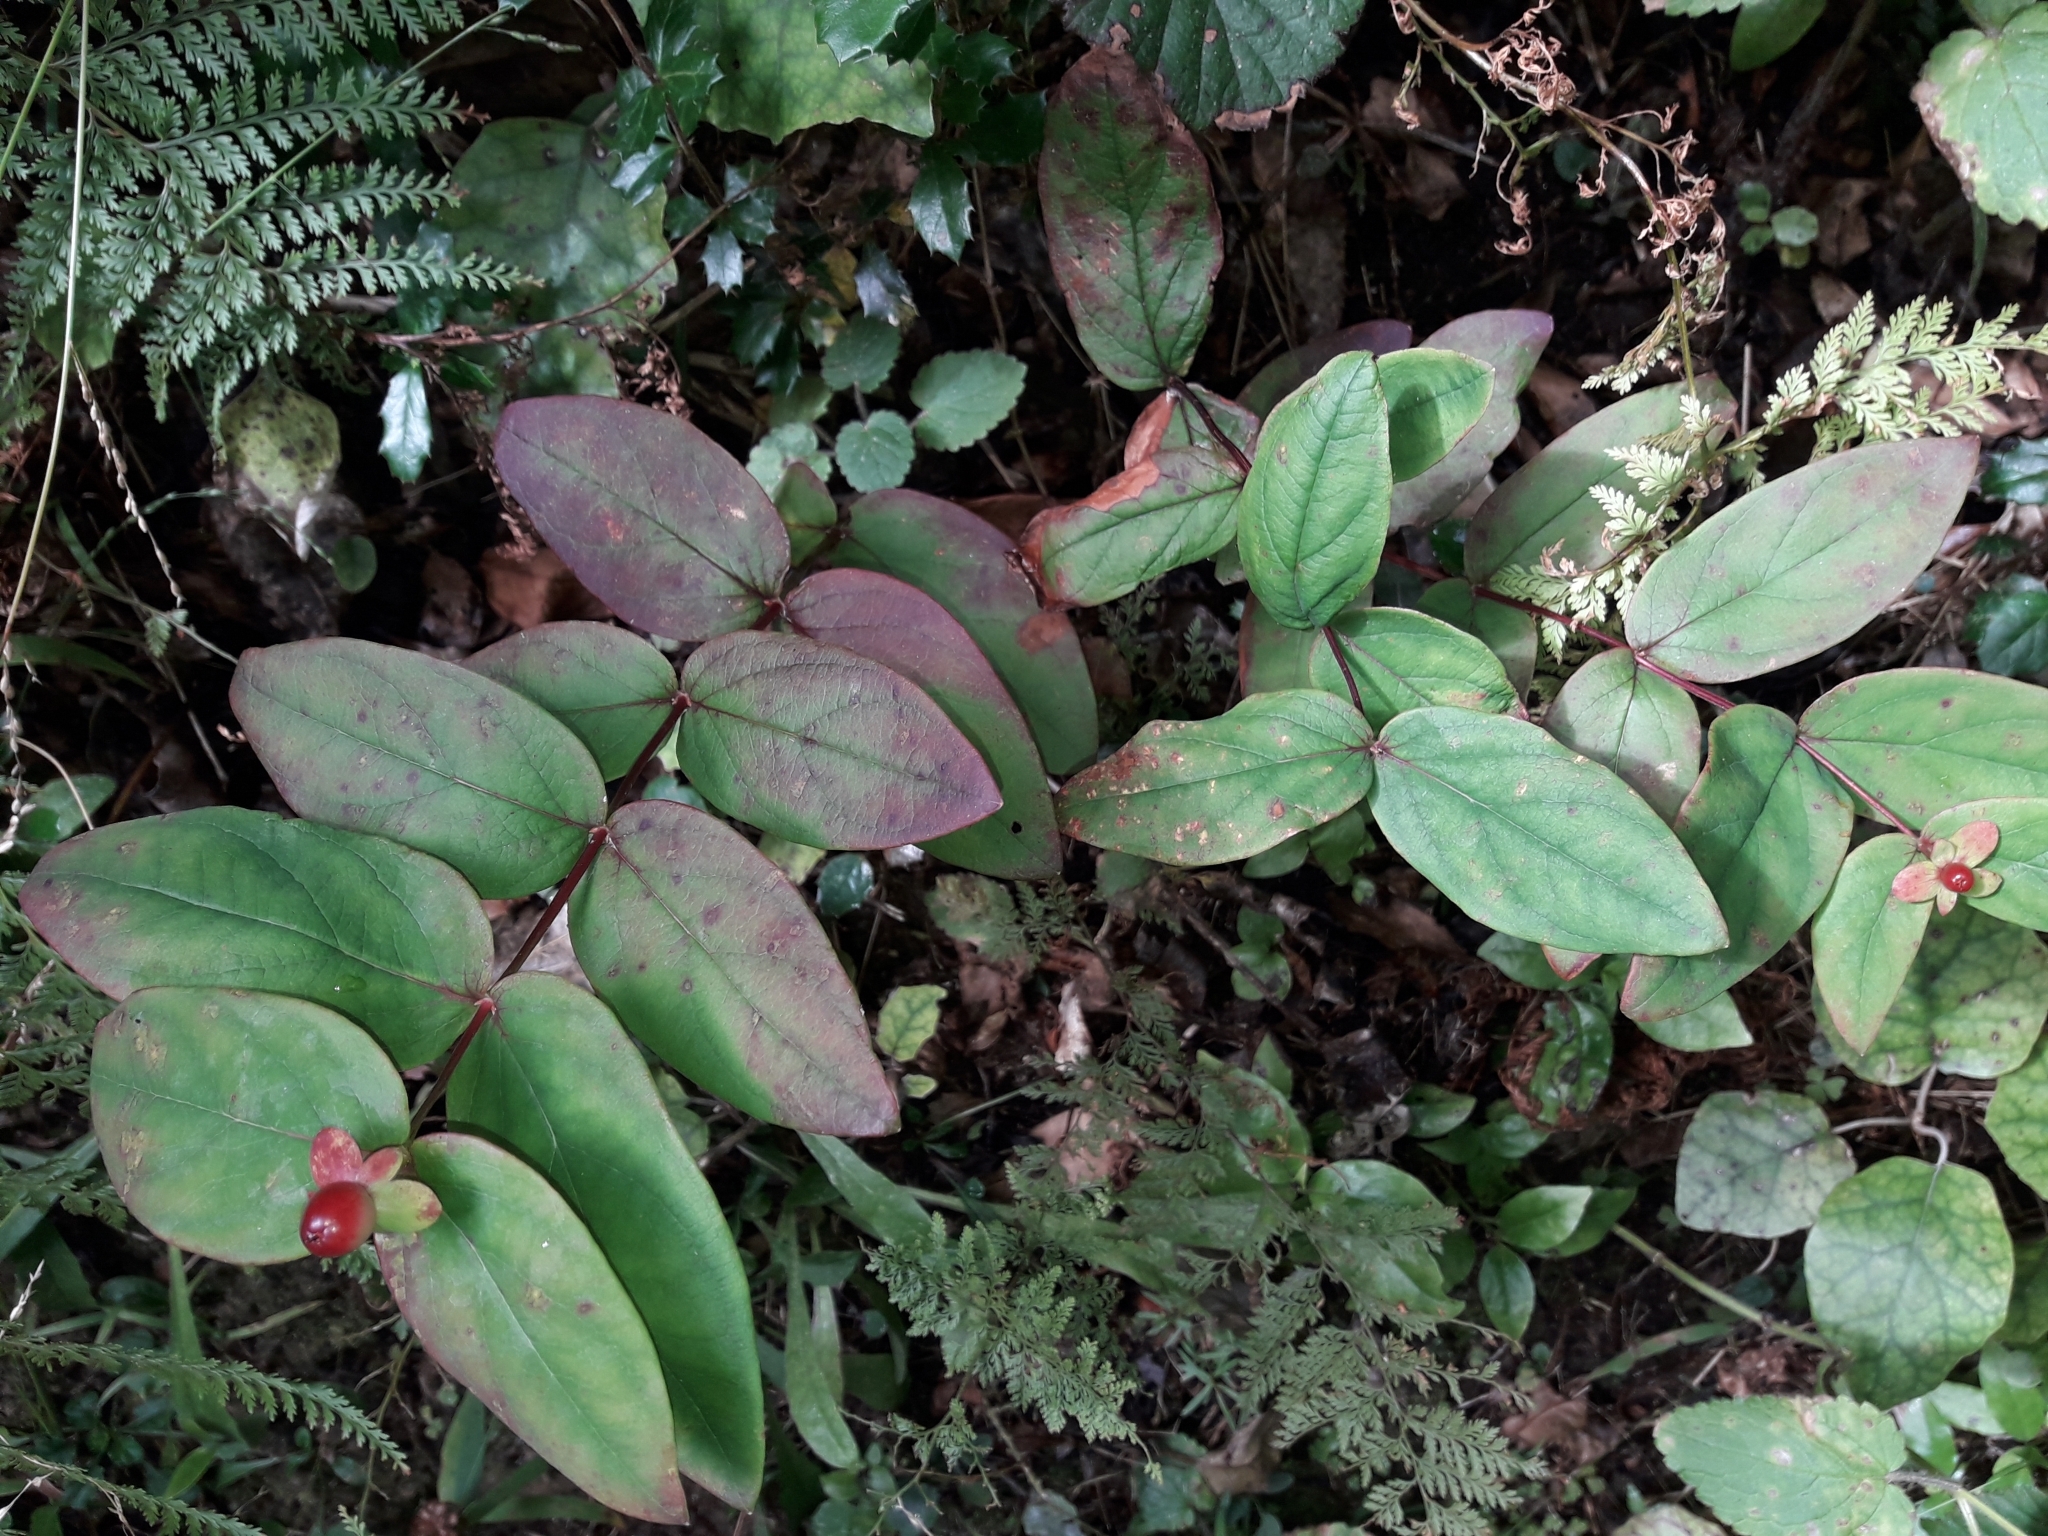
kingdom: Plantae
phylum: Tracheophyta
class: Magnoliopsida
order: Malpighiales
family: Hypericaceae
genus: Hypericum
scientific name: Hypericum androsaemum
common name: Sweet-amber
